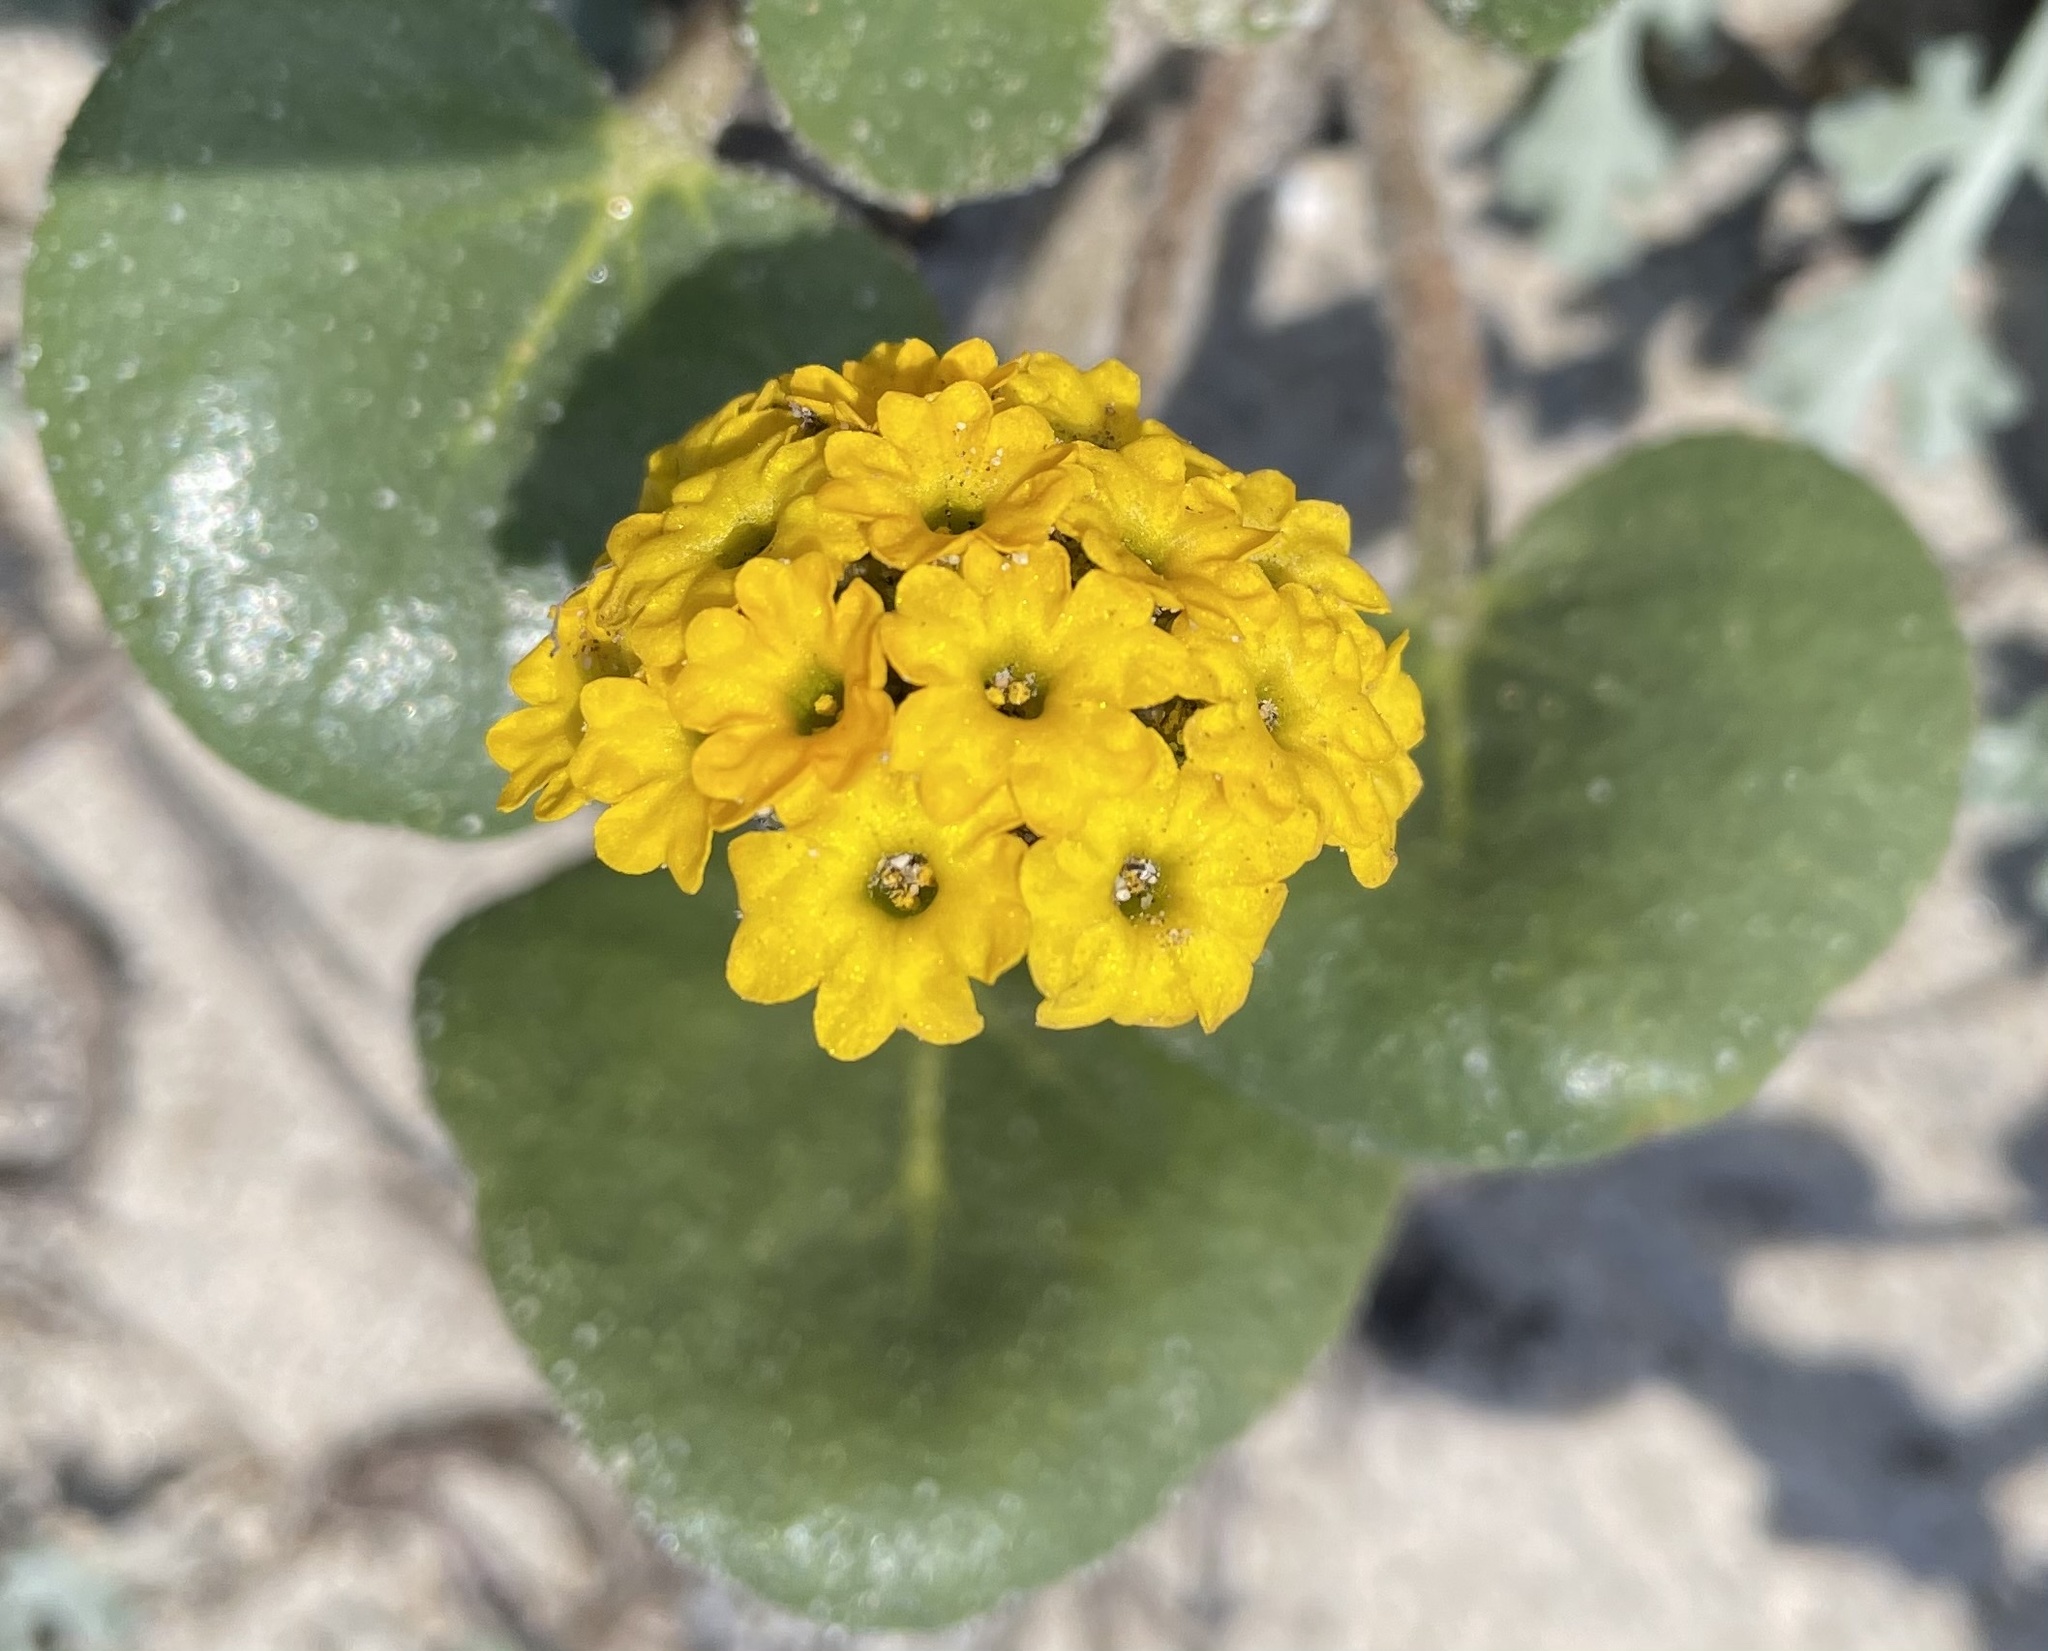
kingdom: Plantae
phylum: Tracheophyta
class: Magnoliopsida
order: Caryophyllales
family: Nyctaginaceae
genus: Abronia
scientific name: Abronia latifolia
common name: Yellow sand-verbena
